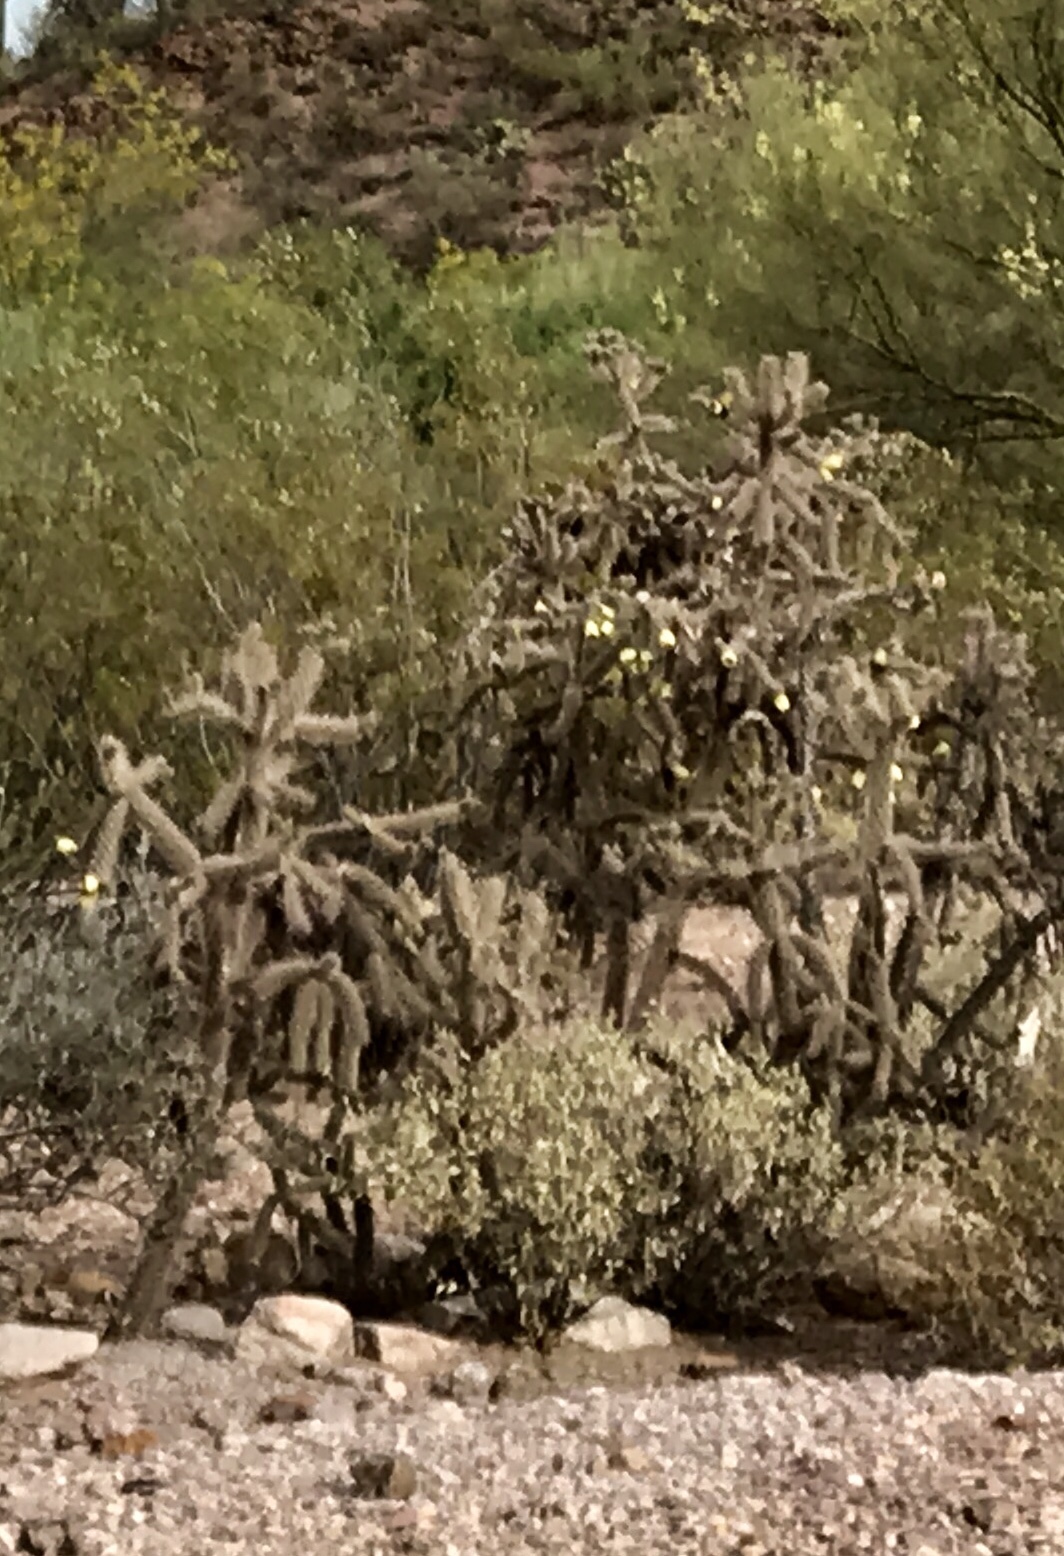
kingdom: Plantae
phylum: Tracheophyta
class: Magnoliopsida
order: Caryophyllales
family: Cactaceae
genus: Cylindropuntia
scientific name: Cylindropuntia imbricata
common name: Candelabrum cactus
